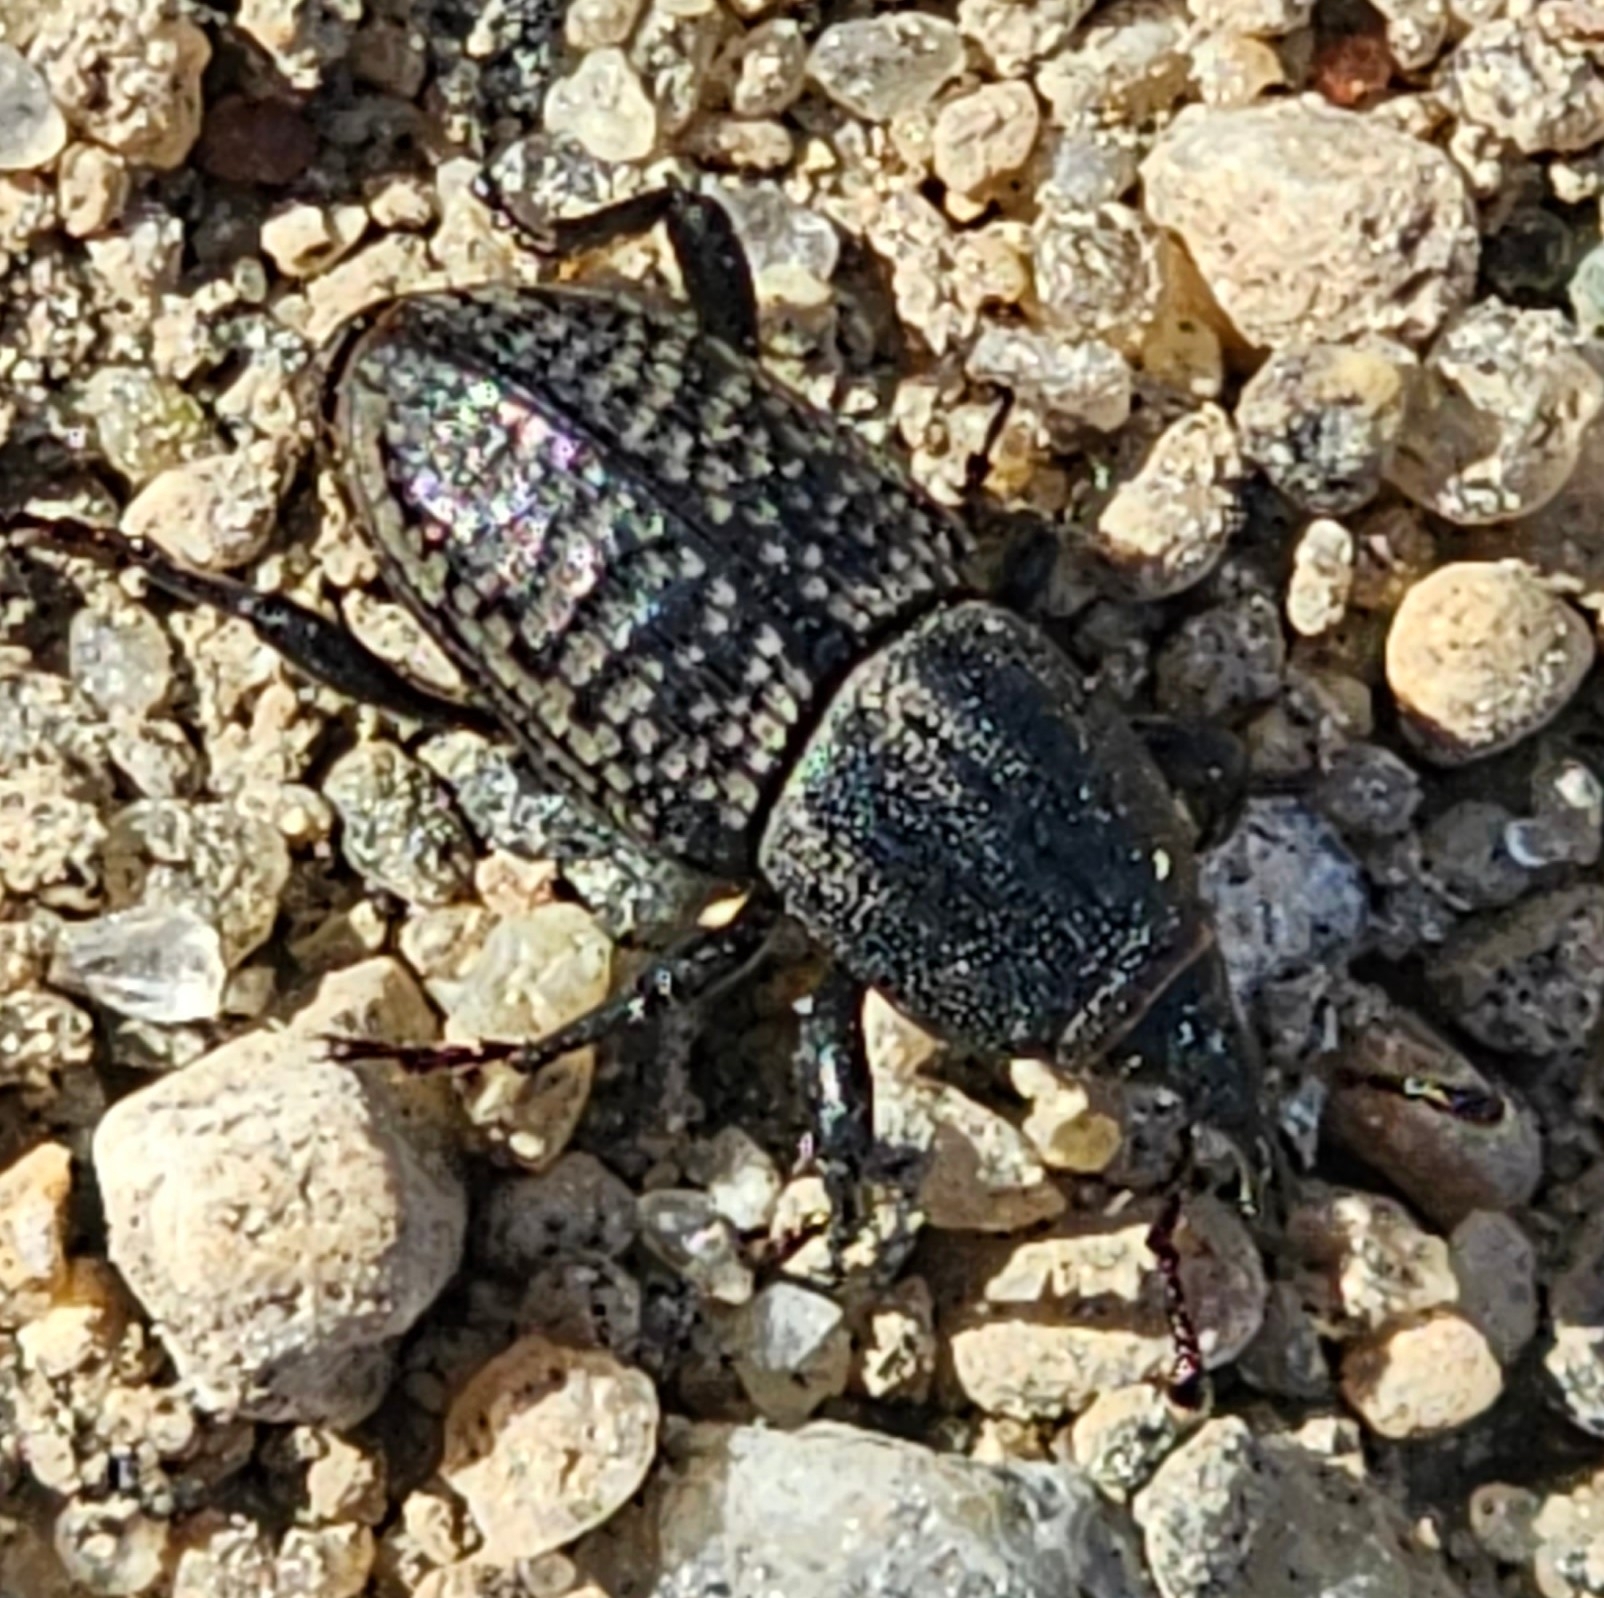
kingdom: Animalia
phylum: Arthropoda
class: Insecta
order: Coleoptera
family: Dryophthoridae
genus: Sphenophorus
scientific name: Sphenophorus cicatristriatus
